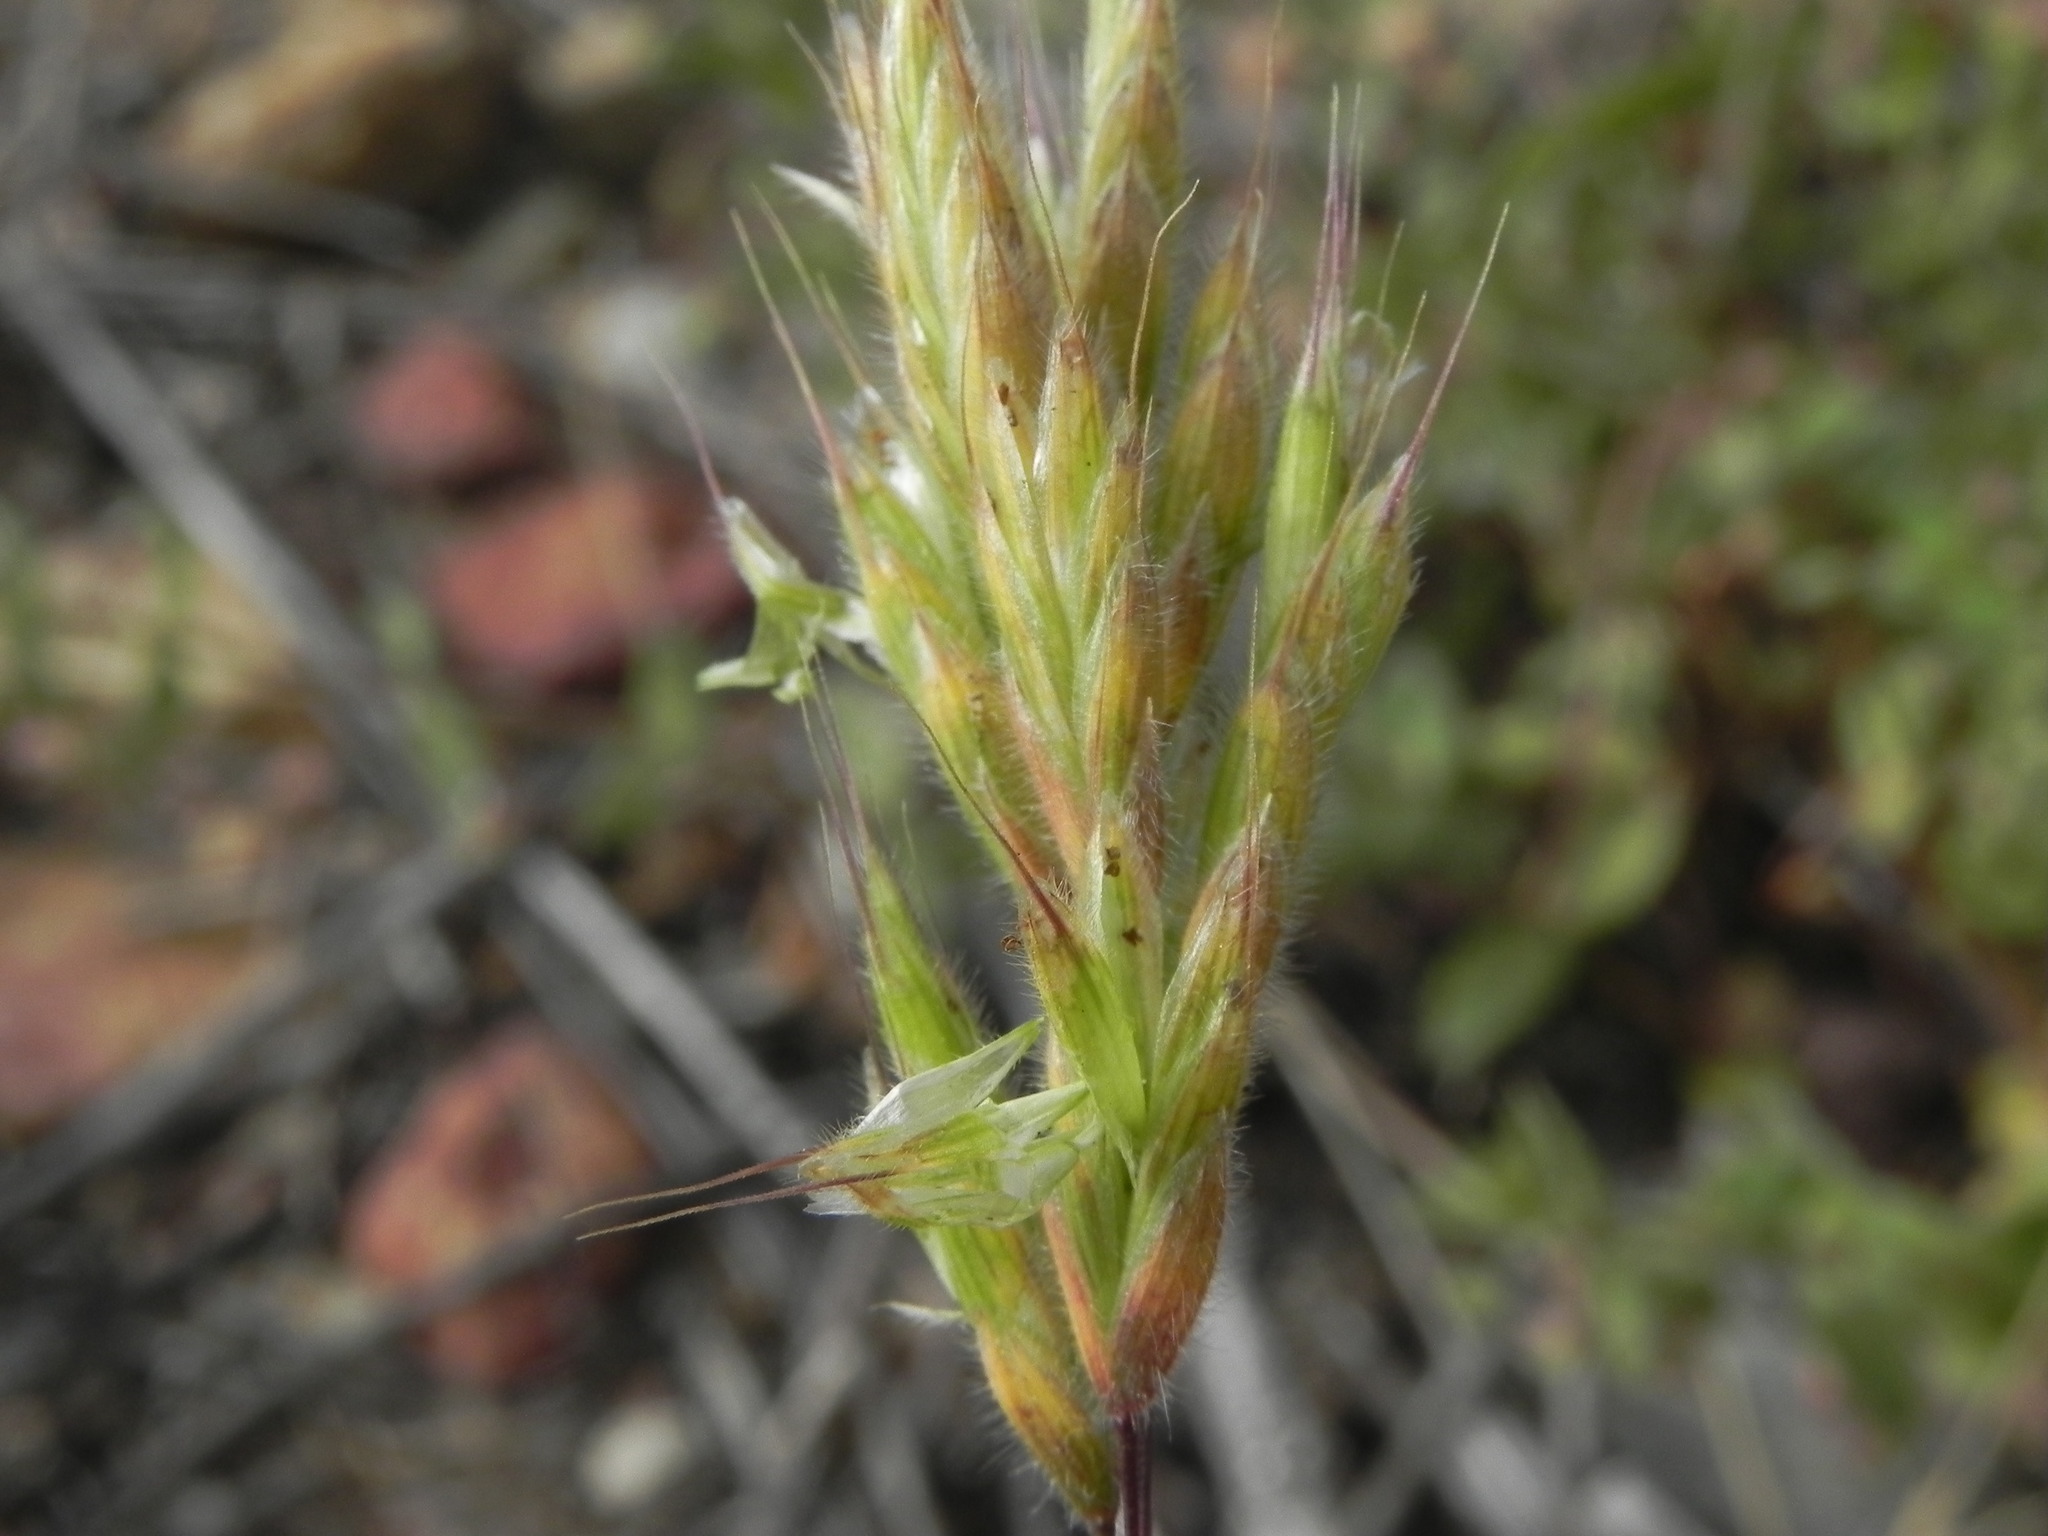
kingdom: Plantae
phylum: Tracheophyta
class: Liliopsida
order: Poales
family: Poaceae
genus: Bromus
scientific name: Bromus hordeaceus
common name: Soft brome
